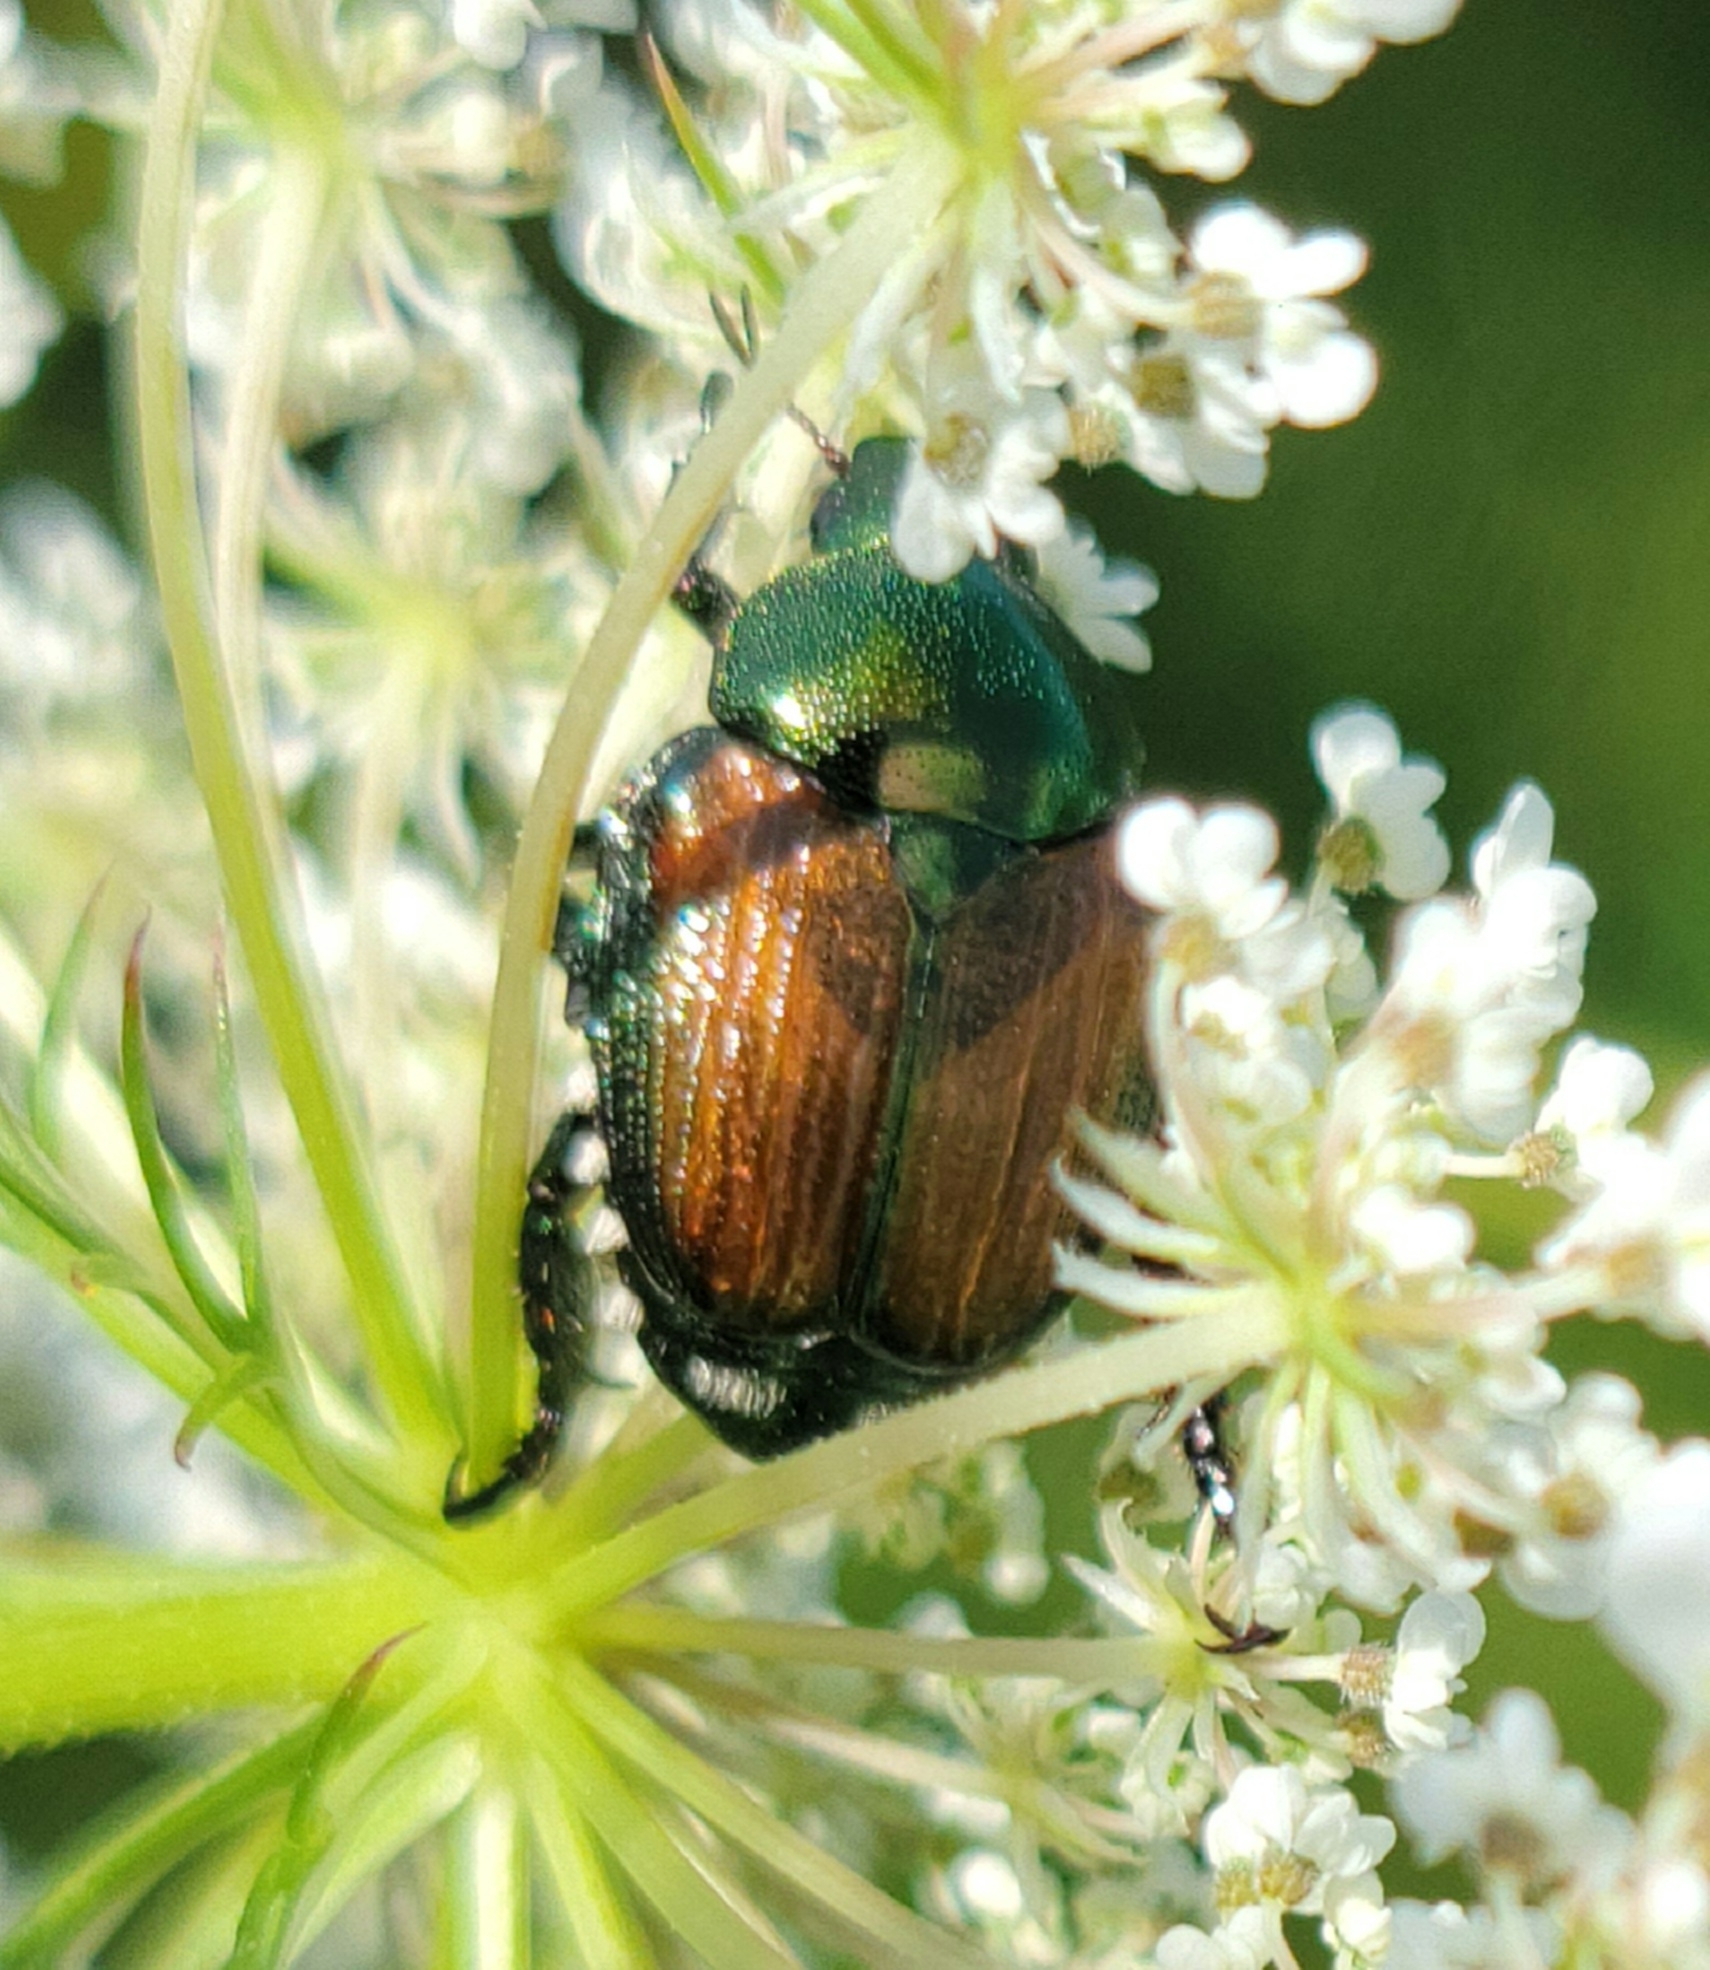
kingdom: Animalia
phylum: Arthropoda
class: Insecta
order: Coleoptera
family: Scarabaeidae
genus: Popillia
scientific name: Popillia japonica
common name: Japanese beetle
